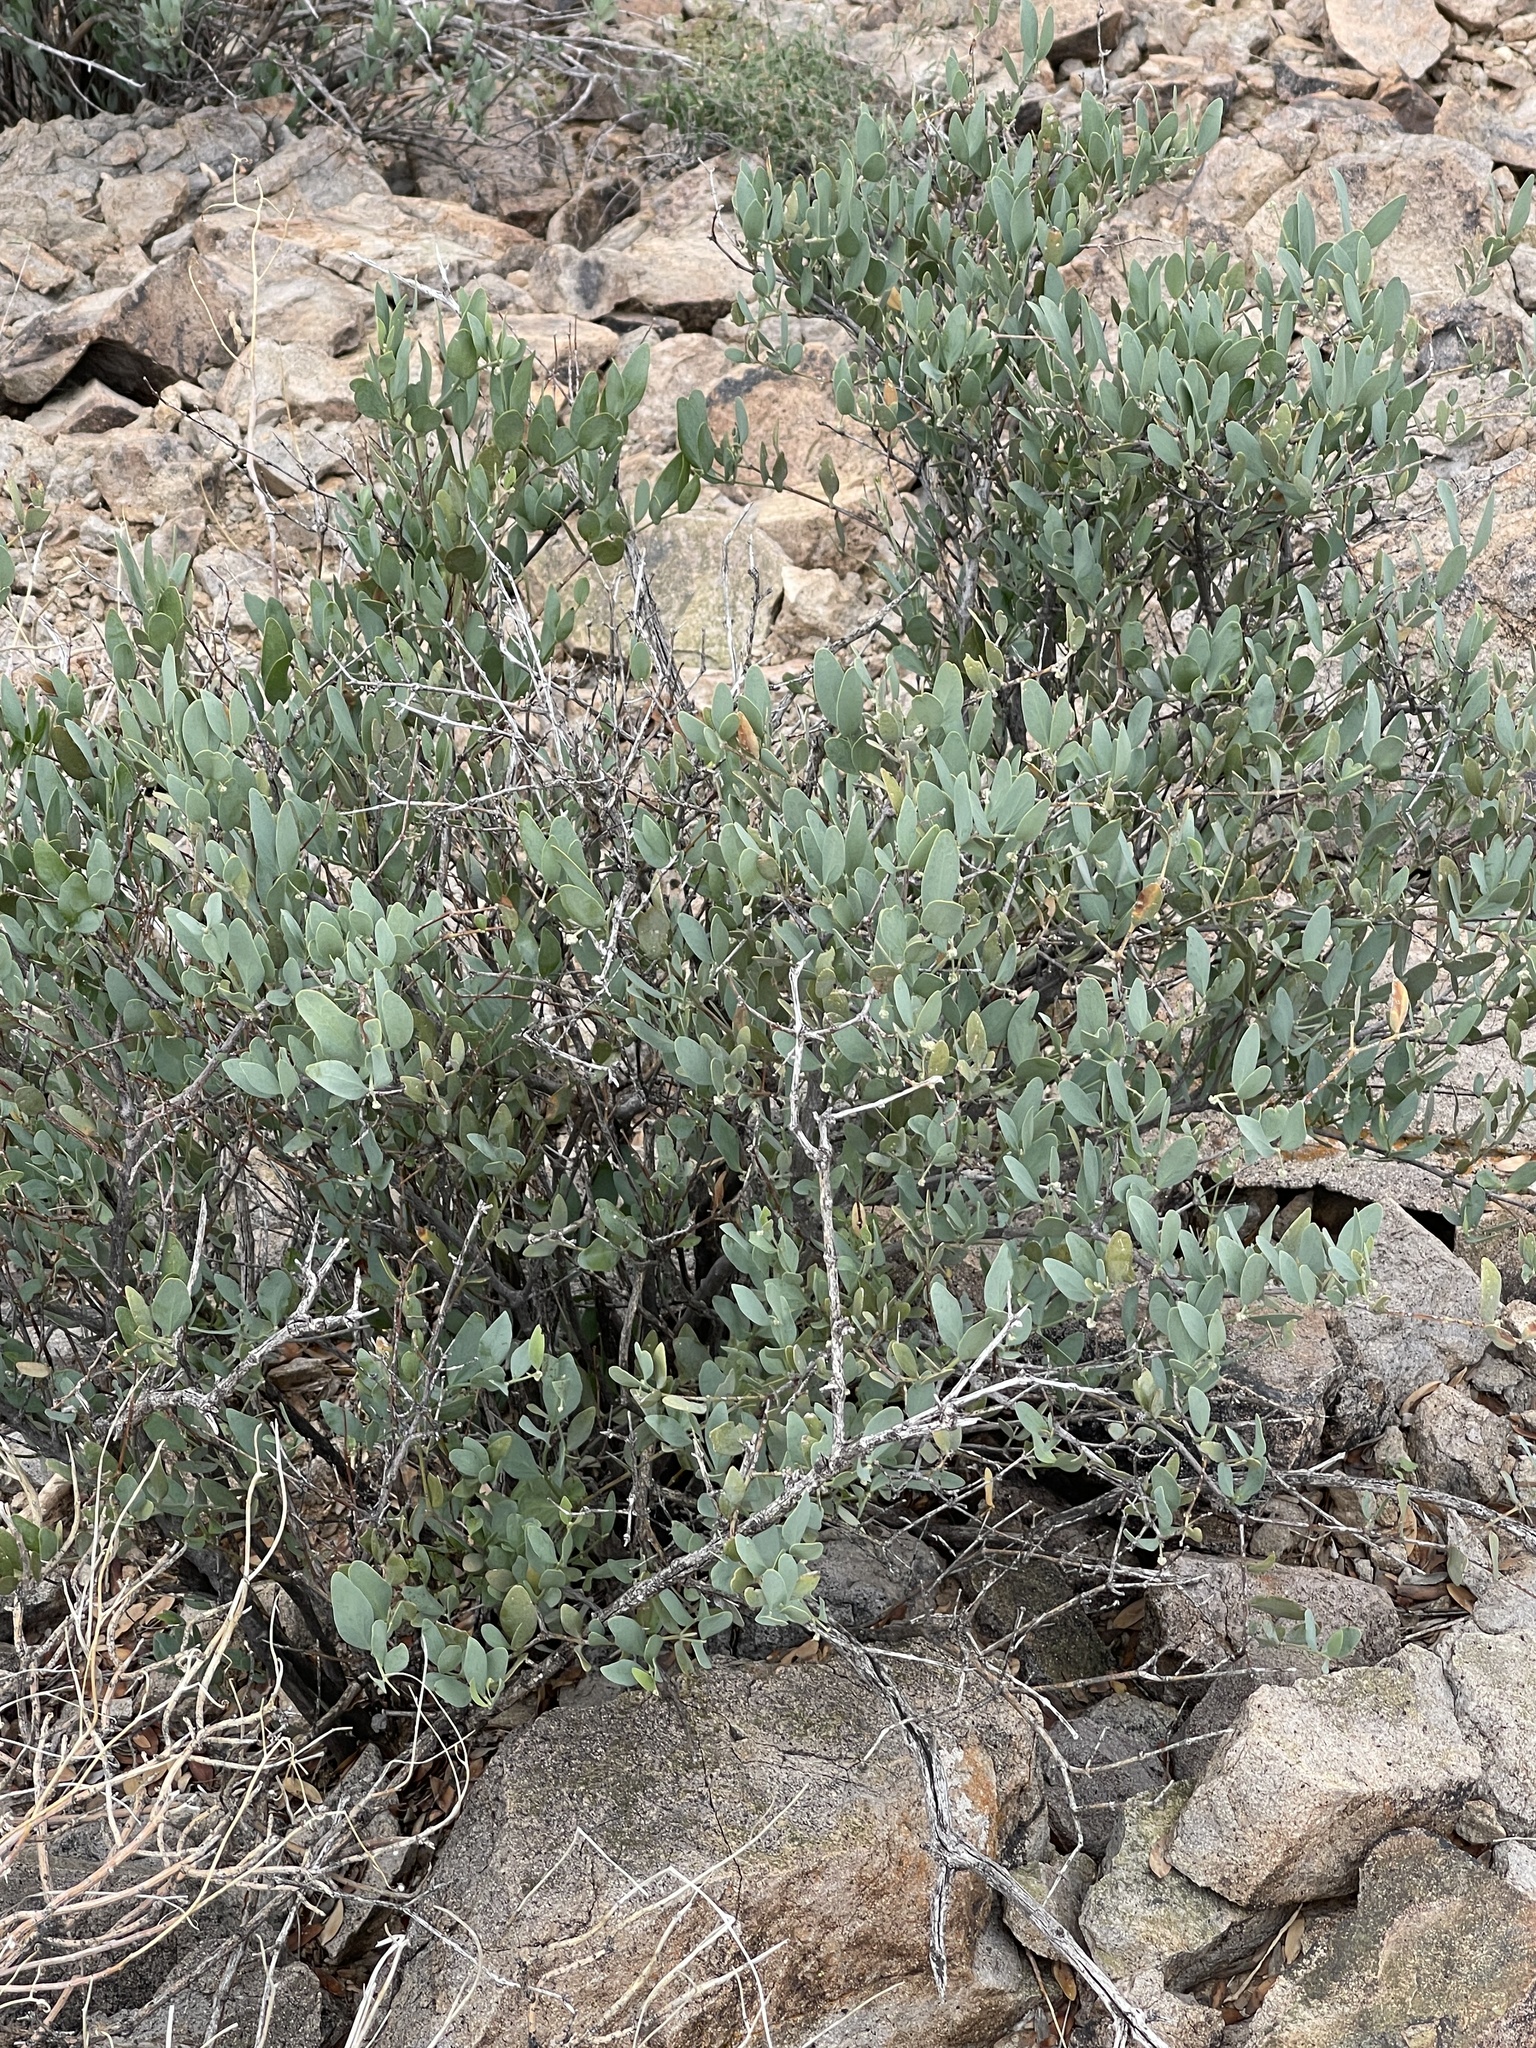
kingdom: Plantae
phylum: Tracheophyta
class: Magnoliopsida
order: Caryophyllales
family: Simmondsiaceae
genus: Simmondsia
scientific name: Simmondsia chinensis
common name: Jojoba
